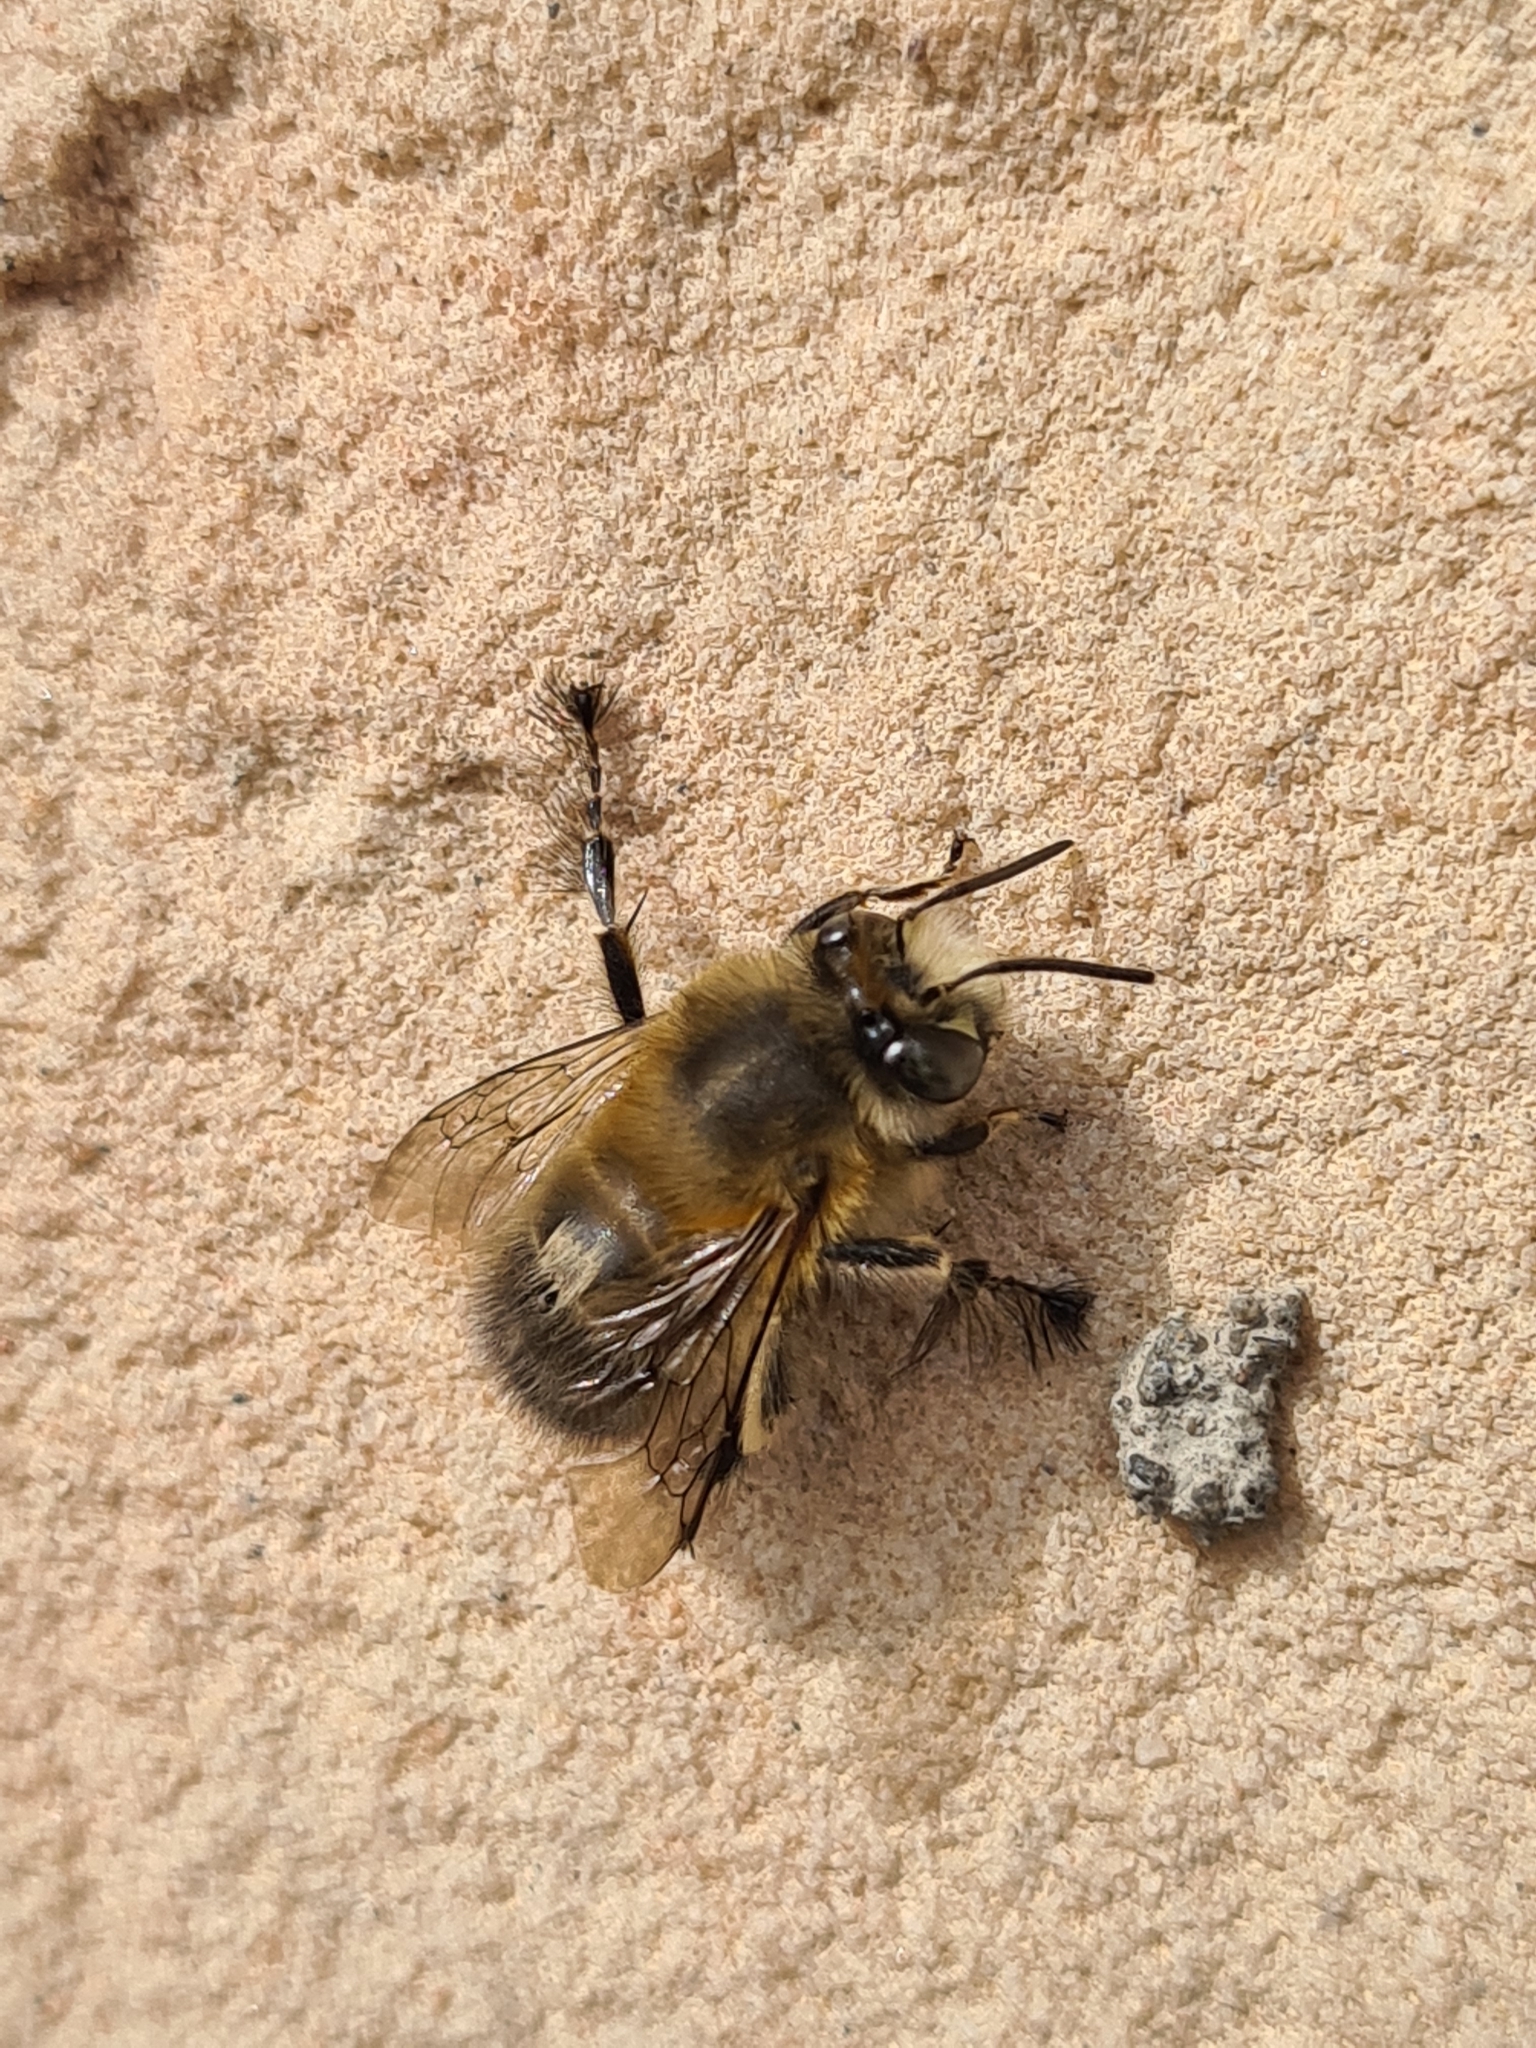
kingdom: Animalia
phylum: Arthropoda
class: Insecta
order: Hymenoptera
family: Apidae
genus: Anthophora
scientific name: Anthophora plumipes
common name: Hairy-footed flower bee
